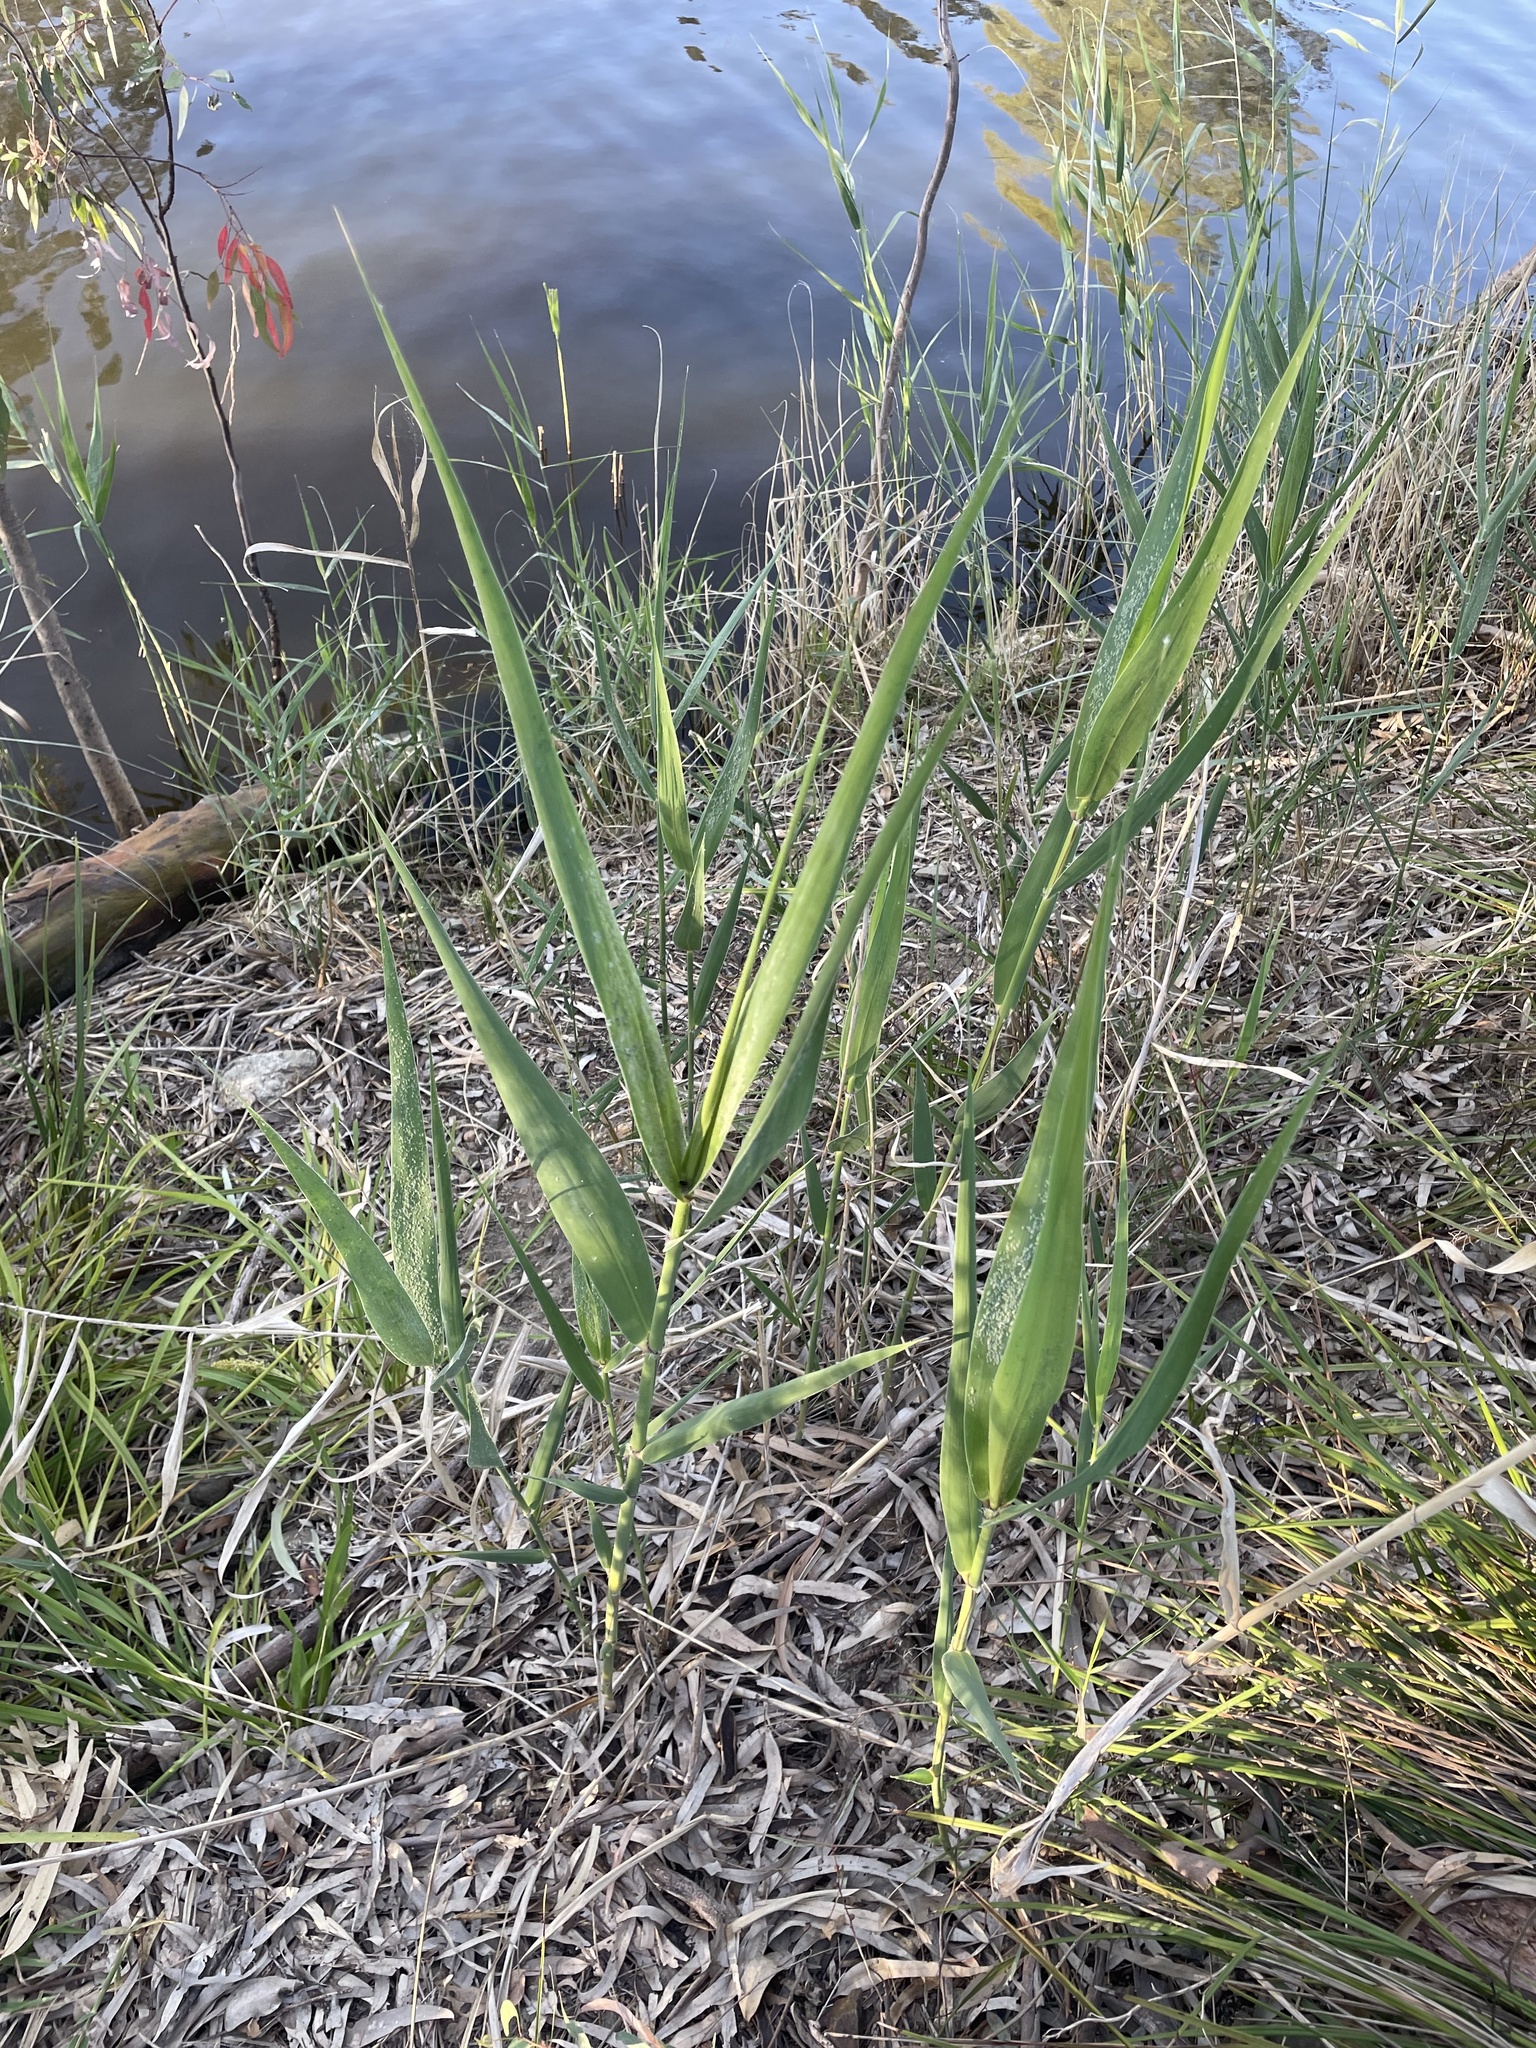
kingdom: Plantae
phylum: Tracheophyta
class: Liliopsida
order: Poales
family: Poaceae
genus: Phragmites
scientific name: Phragmites australis
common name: Common reed
